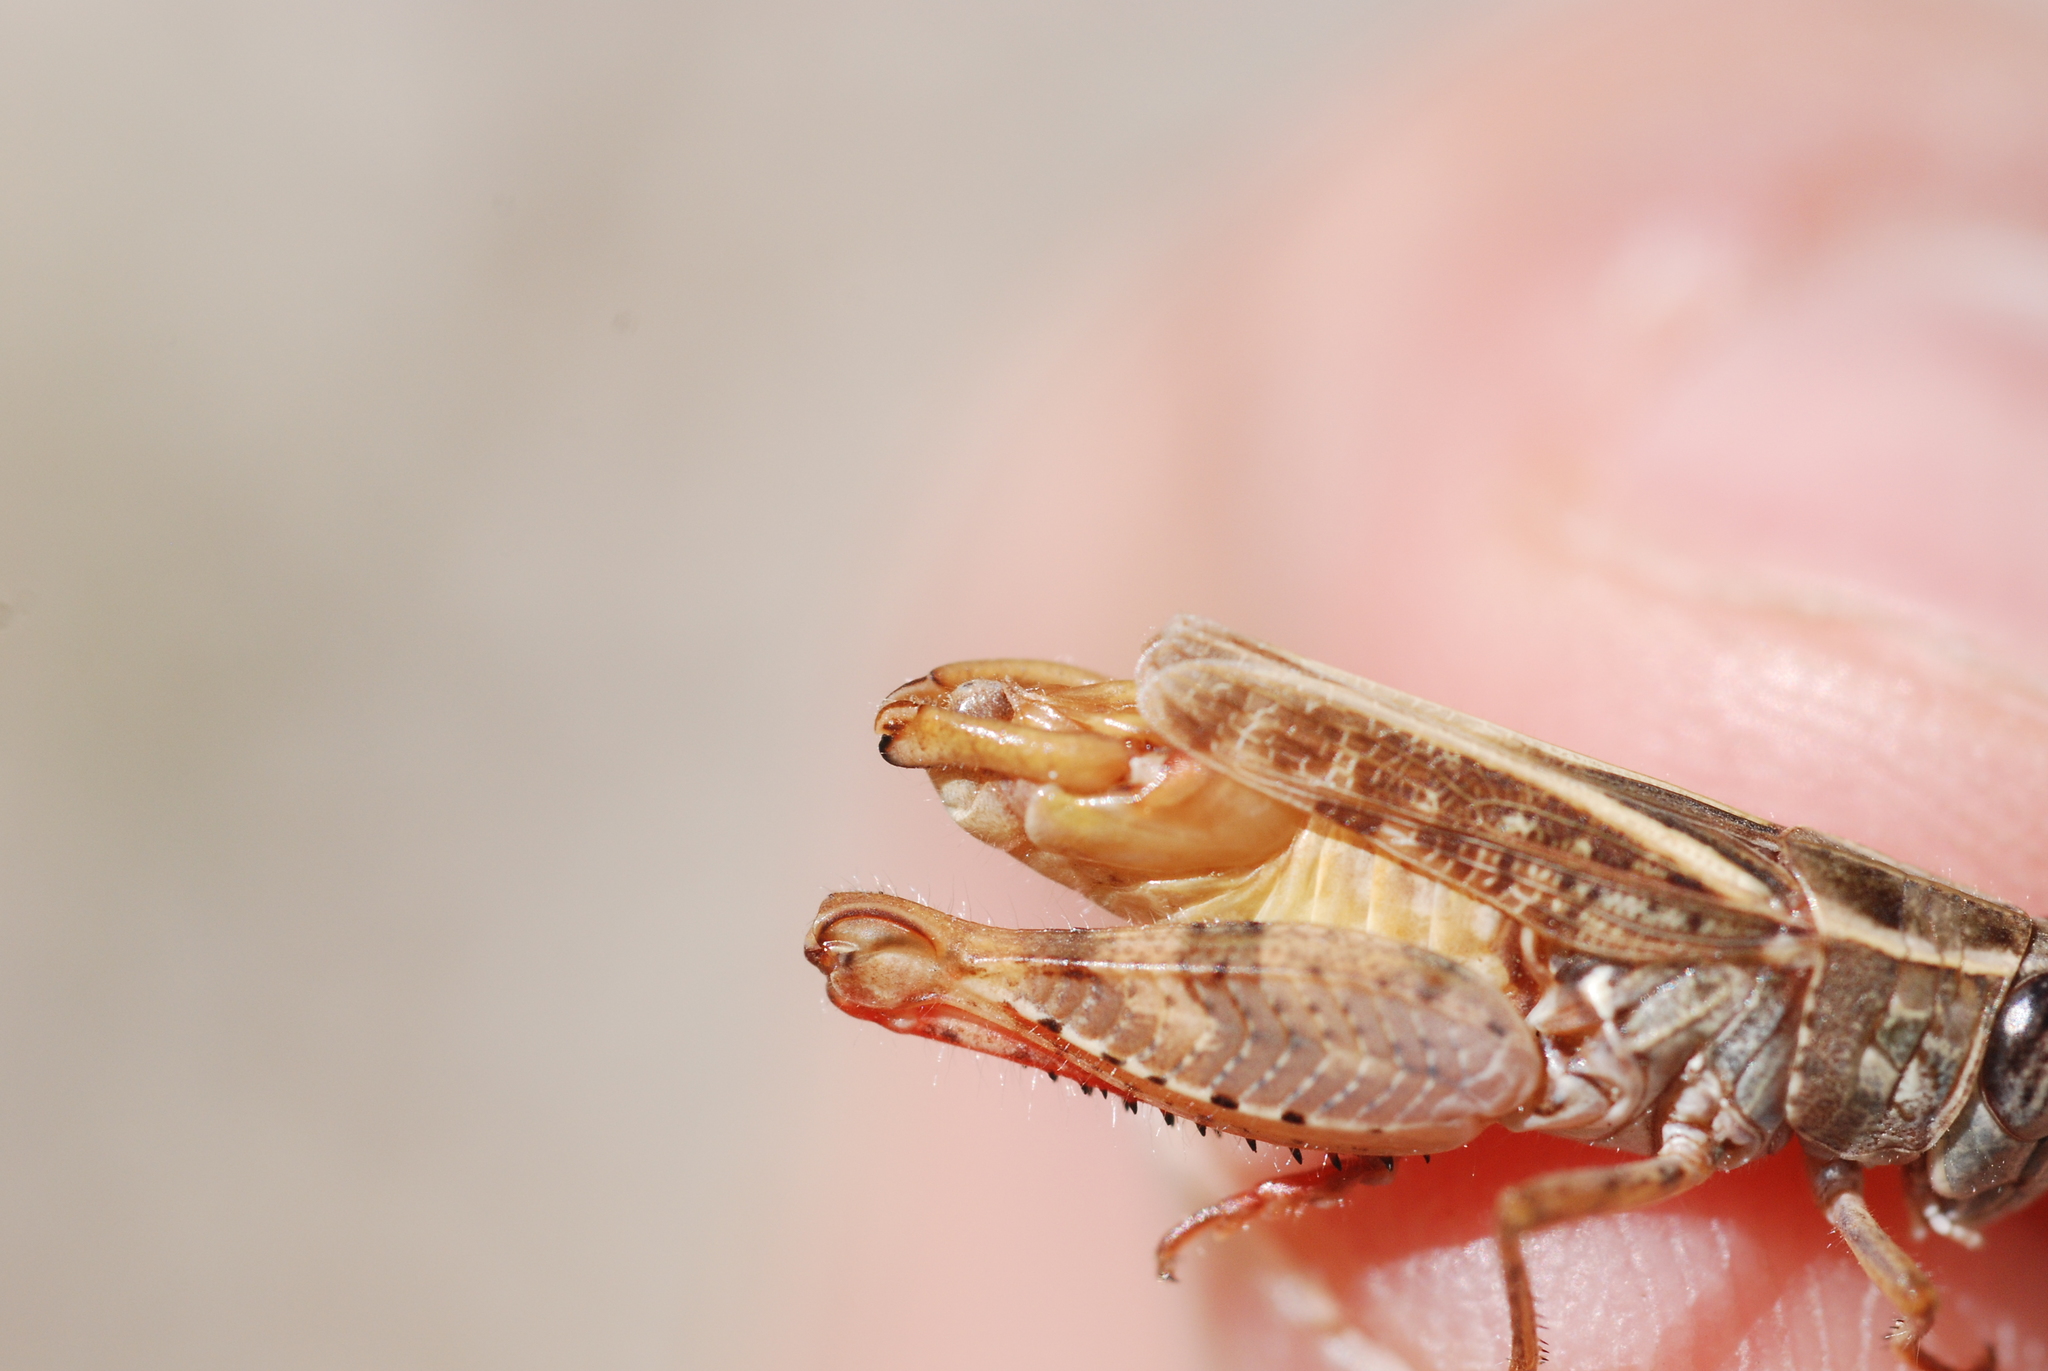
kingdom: Animalia
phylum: Arthropoda
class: Insecta
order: Orthoptera
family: Acrididae
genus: Calliptamus
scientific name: Calliptamus siciliae
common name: Pygmy pincer grasshopper
